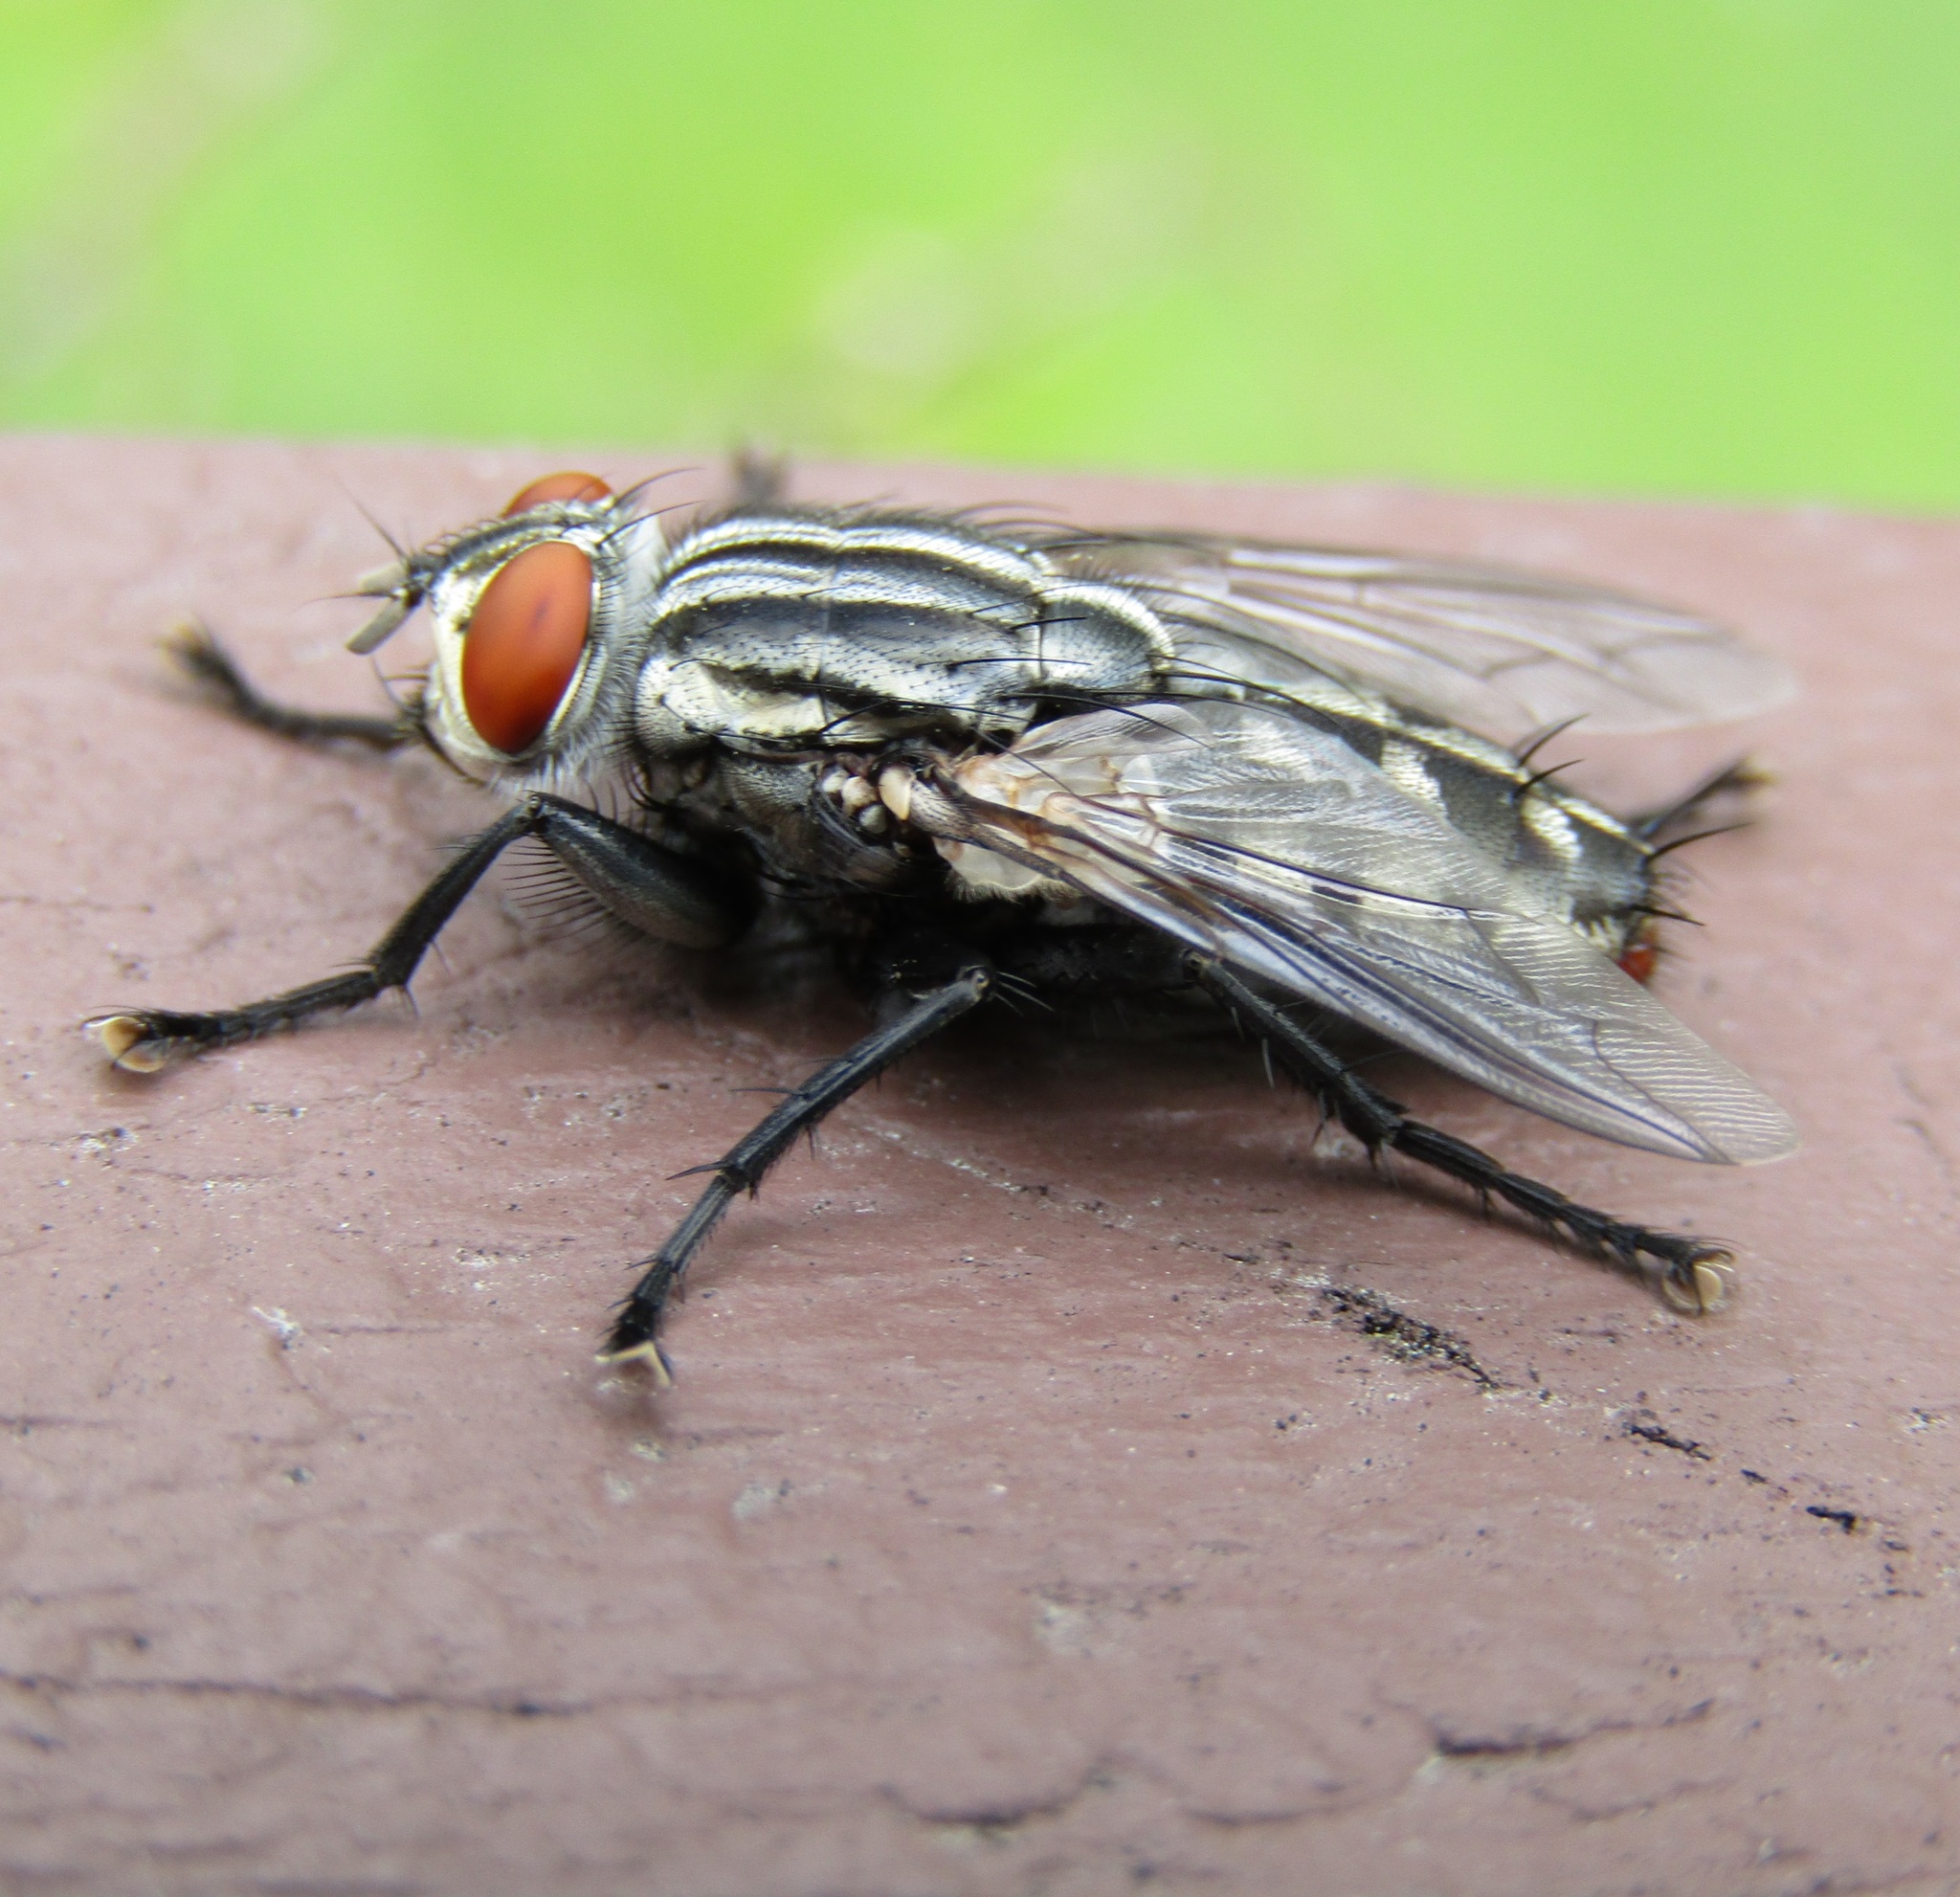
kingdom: Animalia
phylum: Arthropoda
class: Insecta
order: Diptera
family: Sarcophagidae
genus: Sarcophaga
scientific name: Sarcophaga crassipalpis
